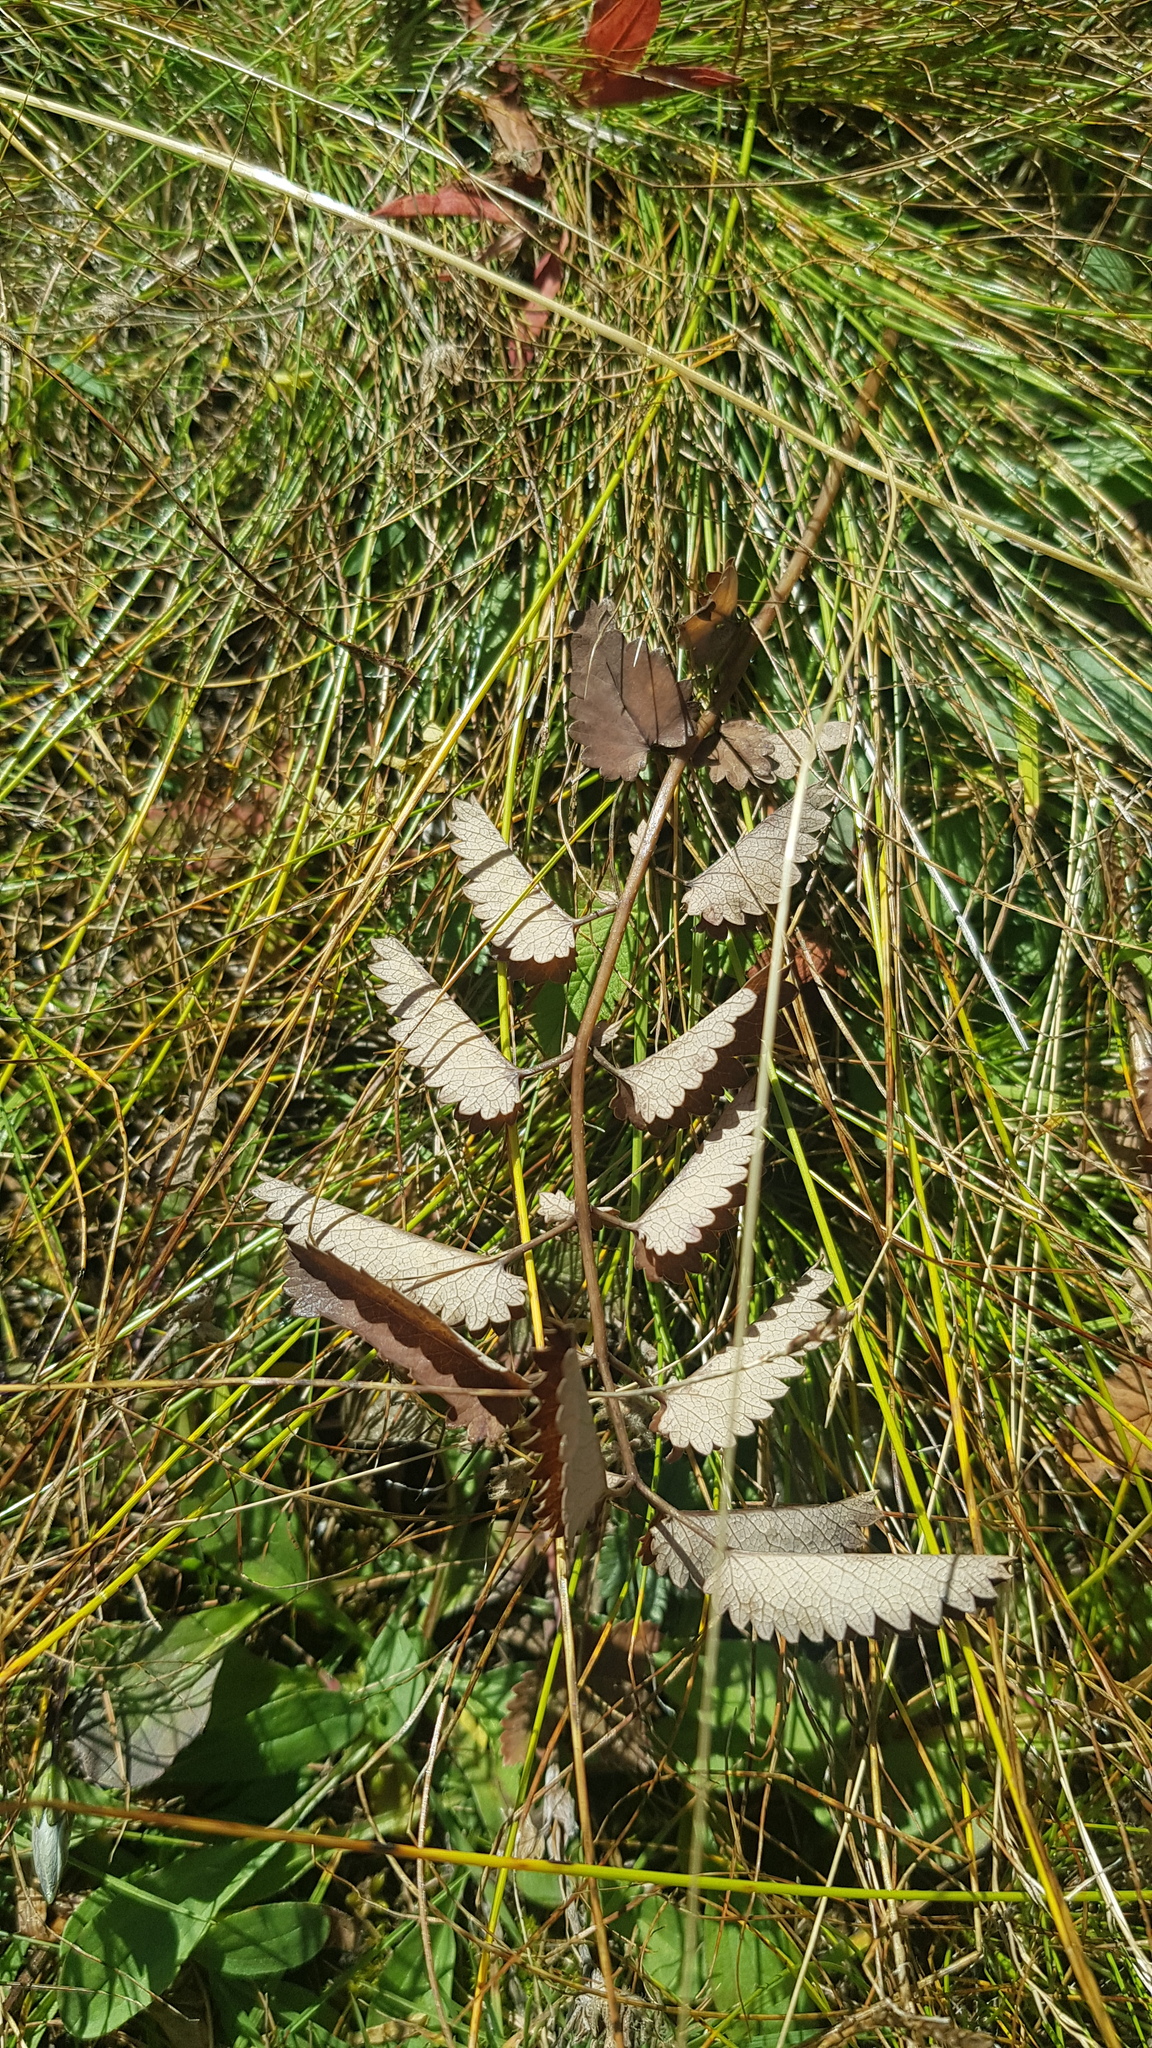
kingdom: Plantae
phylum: Tracheophyta
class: Magnoliopsida
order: Rosales
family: Rosaceae
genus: Sanguisorba
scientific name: Sanguisorba officinalis
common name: Great burnet
